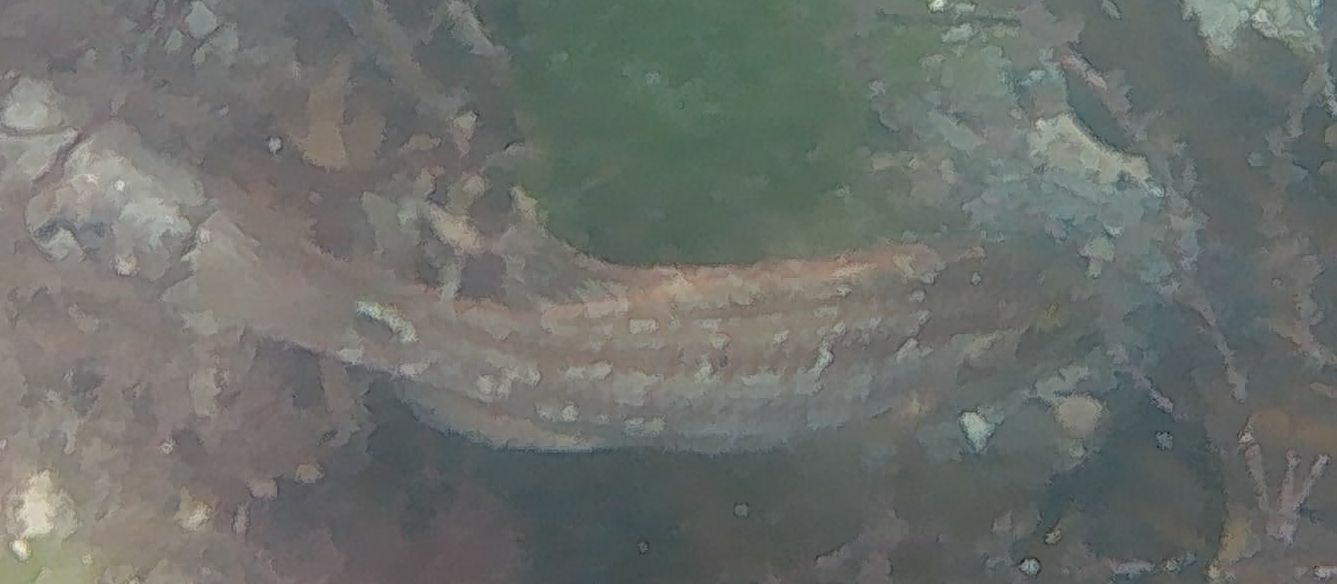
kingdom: Animalia
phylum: Chordata
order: Perciformes
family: Labridae
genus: Symphodus
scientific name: Symphodus melops
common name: Corkwing
